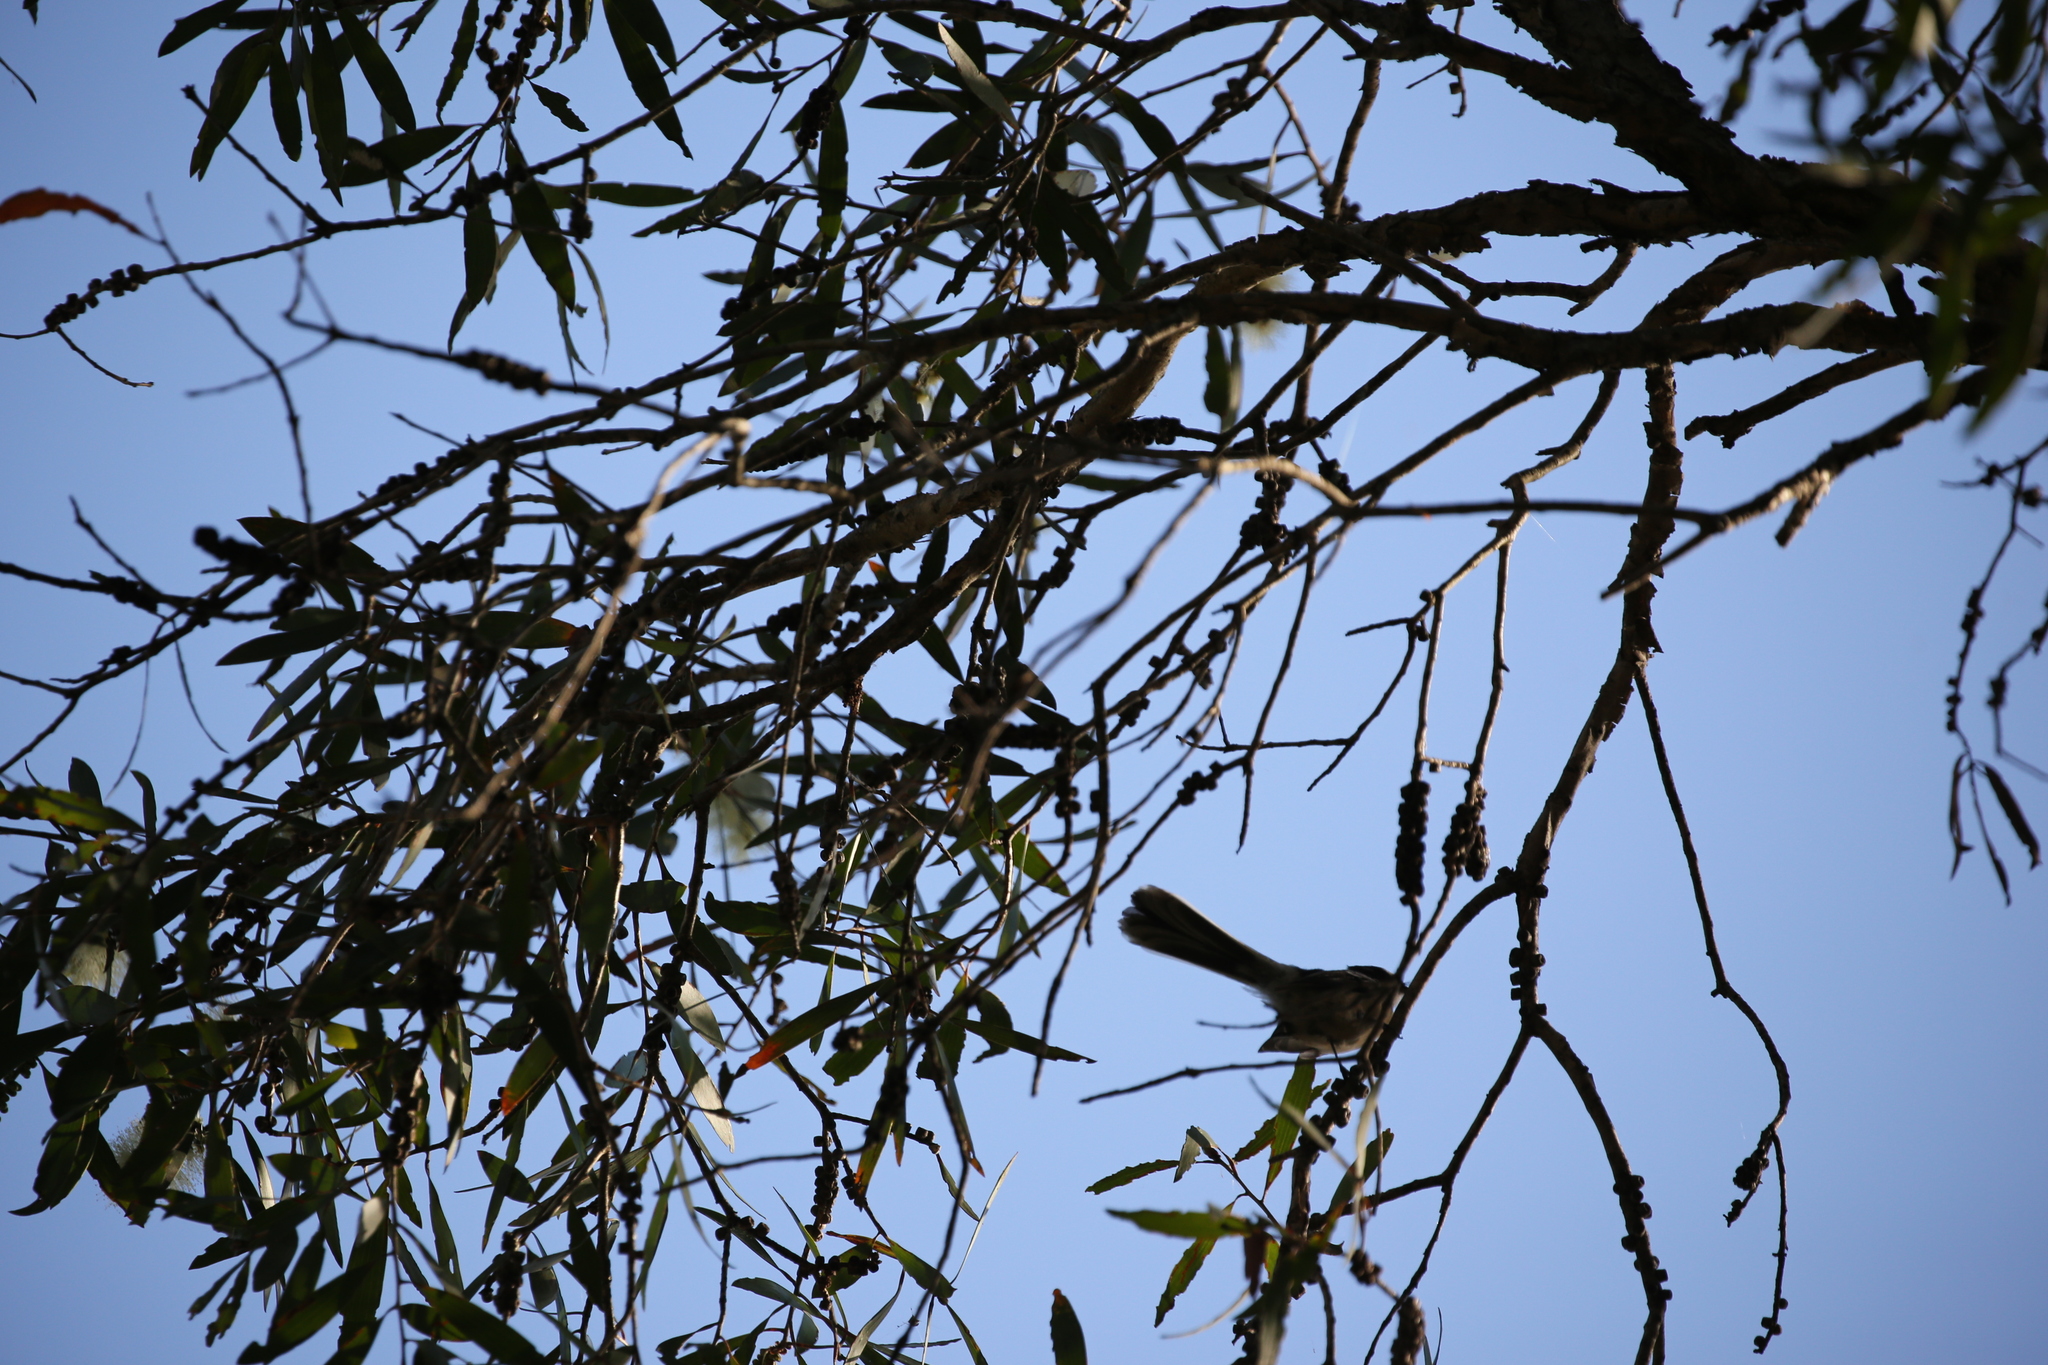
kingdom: Animalia
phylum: Chordata
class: Aves
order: Passeriformes
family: Rhipiduridae
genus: Rhipidura
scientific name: Rhipidura albiscapa
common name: Grey fantail
